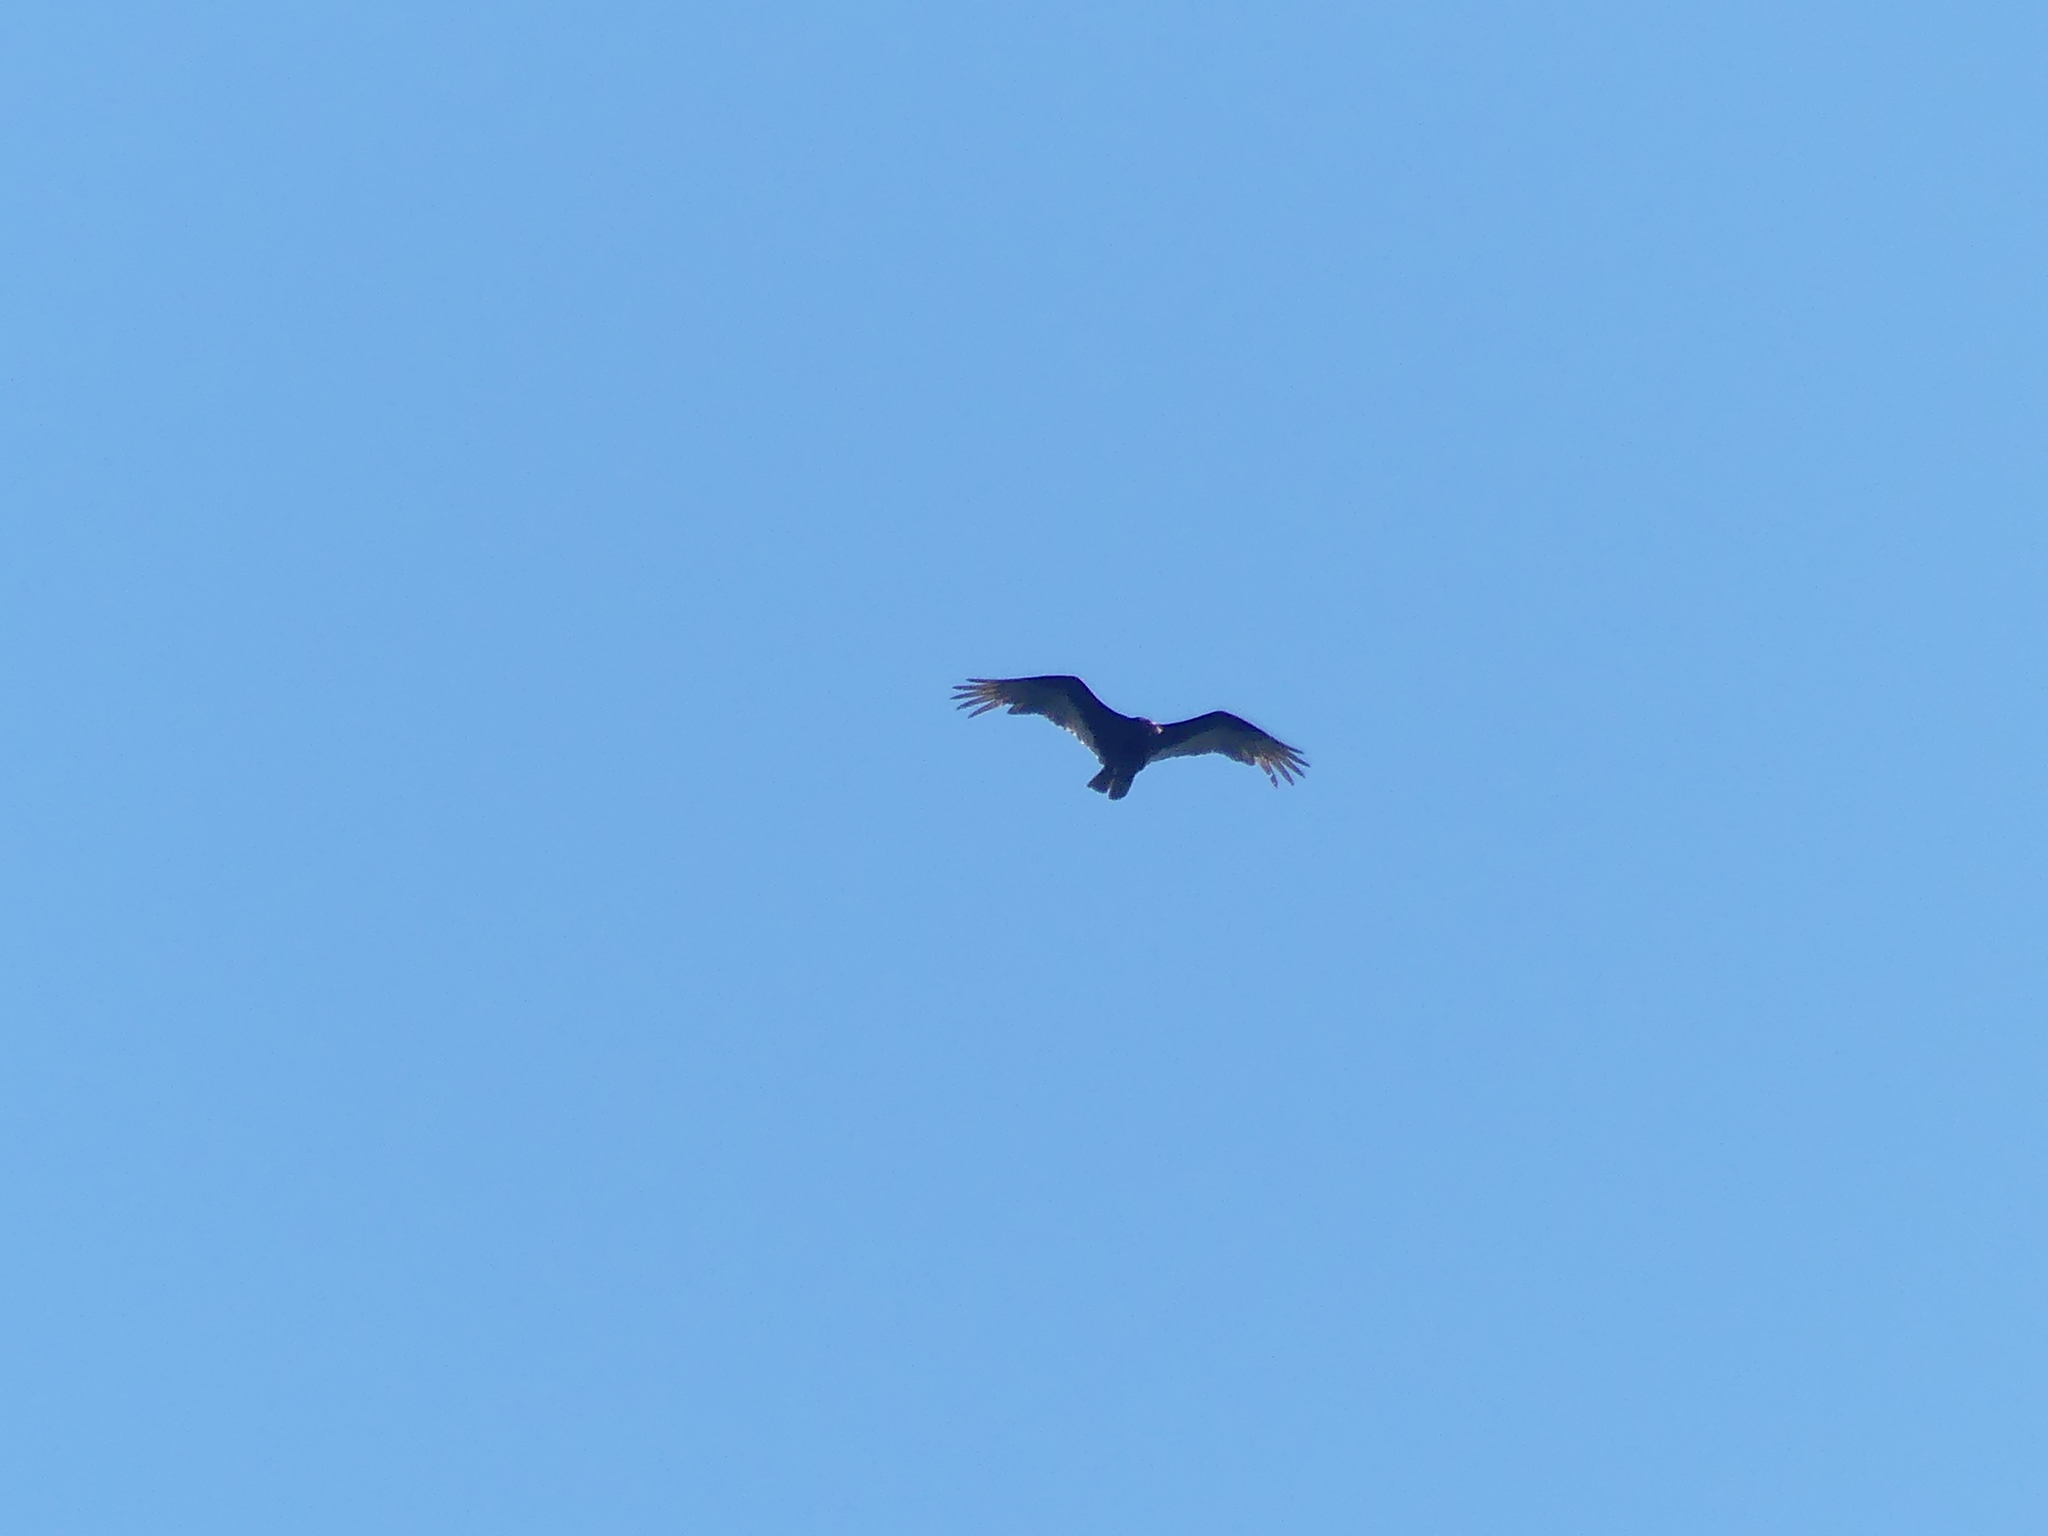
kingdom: Animalia
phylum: Chordata
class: Aves
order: Accipitriformes
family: Cathartidae
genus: Cathartes
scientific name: Cathartes aura
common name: Turkey vulture
